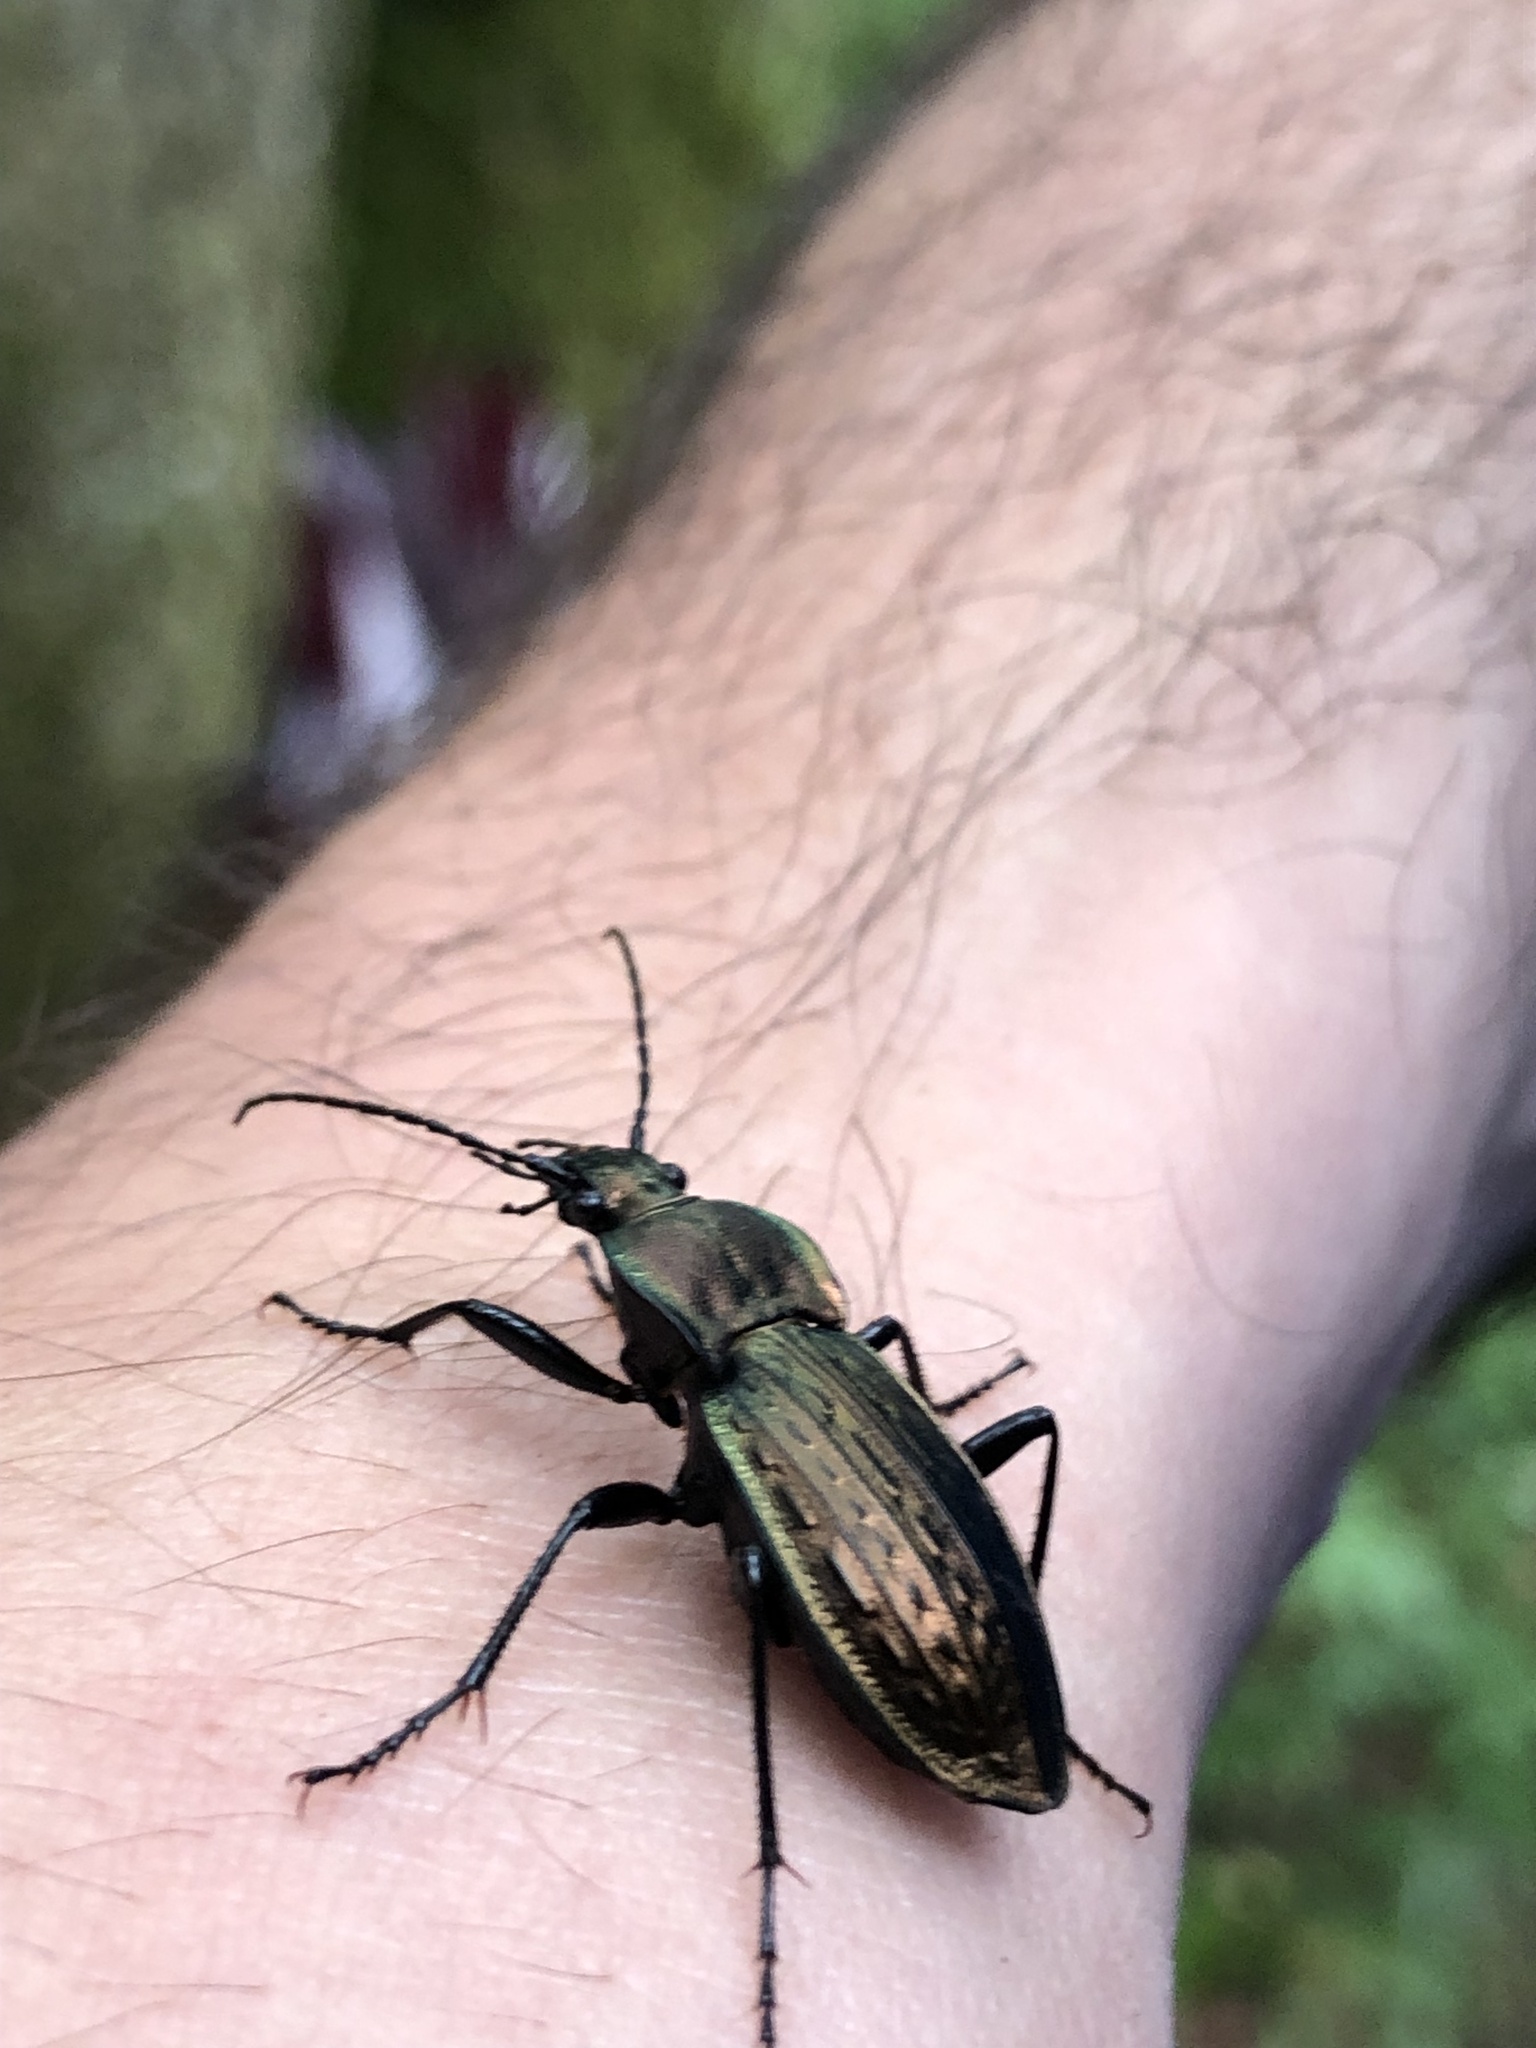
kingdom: Animalia
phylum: Arthropoda
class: Insecta
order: Coleoptera
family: Carabidae
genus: Carabus
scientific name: Carabus cancellatus
